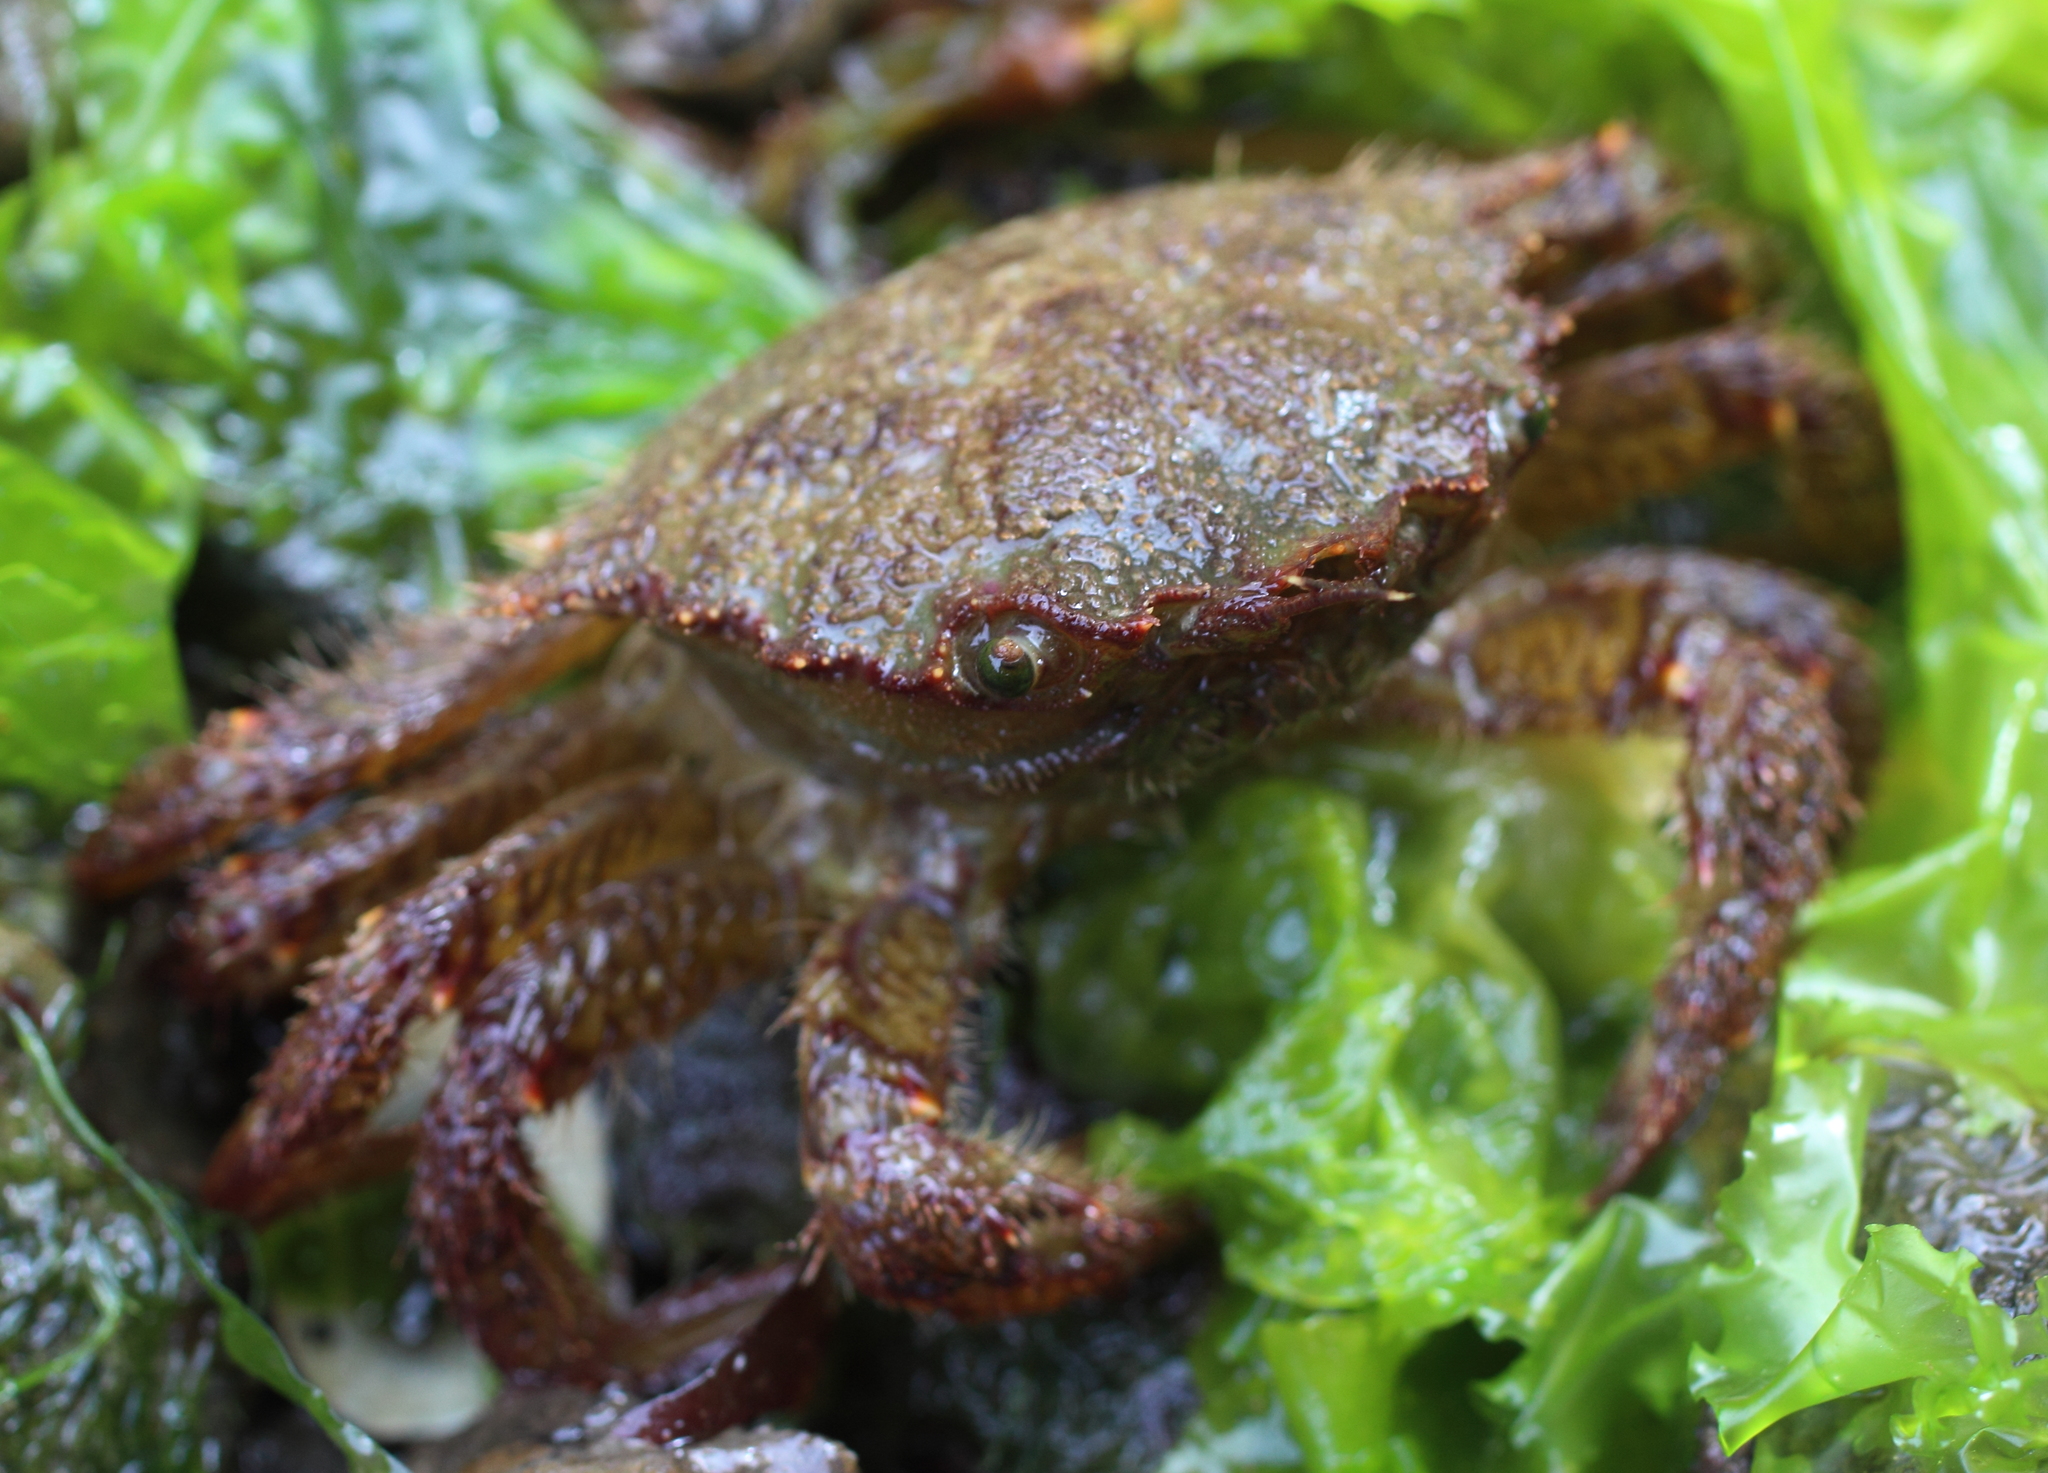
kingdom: Animalia
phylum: Arthropoda
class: Malacostraca
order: Decapoda
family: Cheiragonidae
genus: Telmessus
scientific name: Telmessus cheiragonus
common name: Helmet crab
